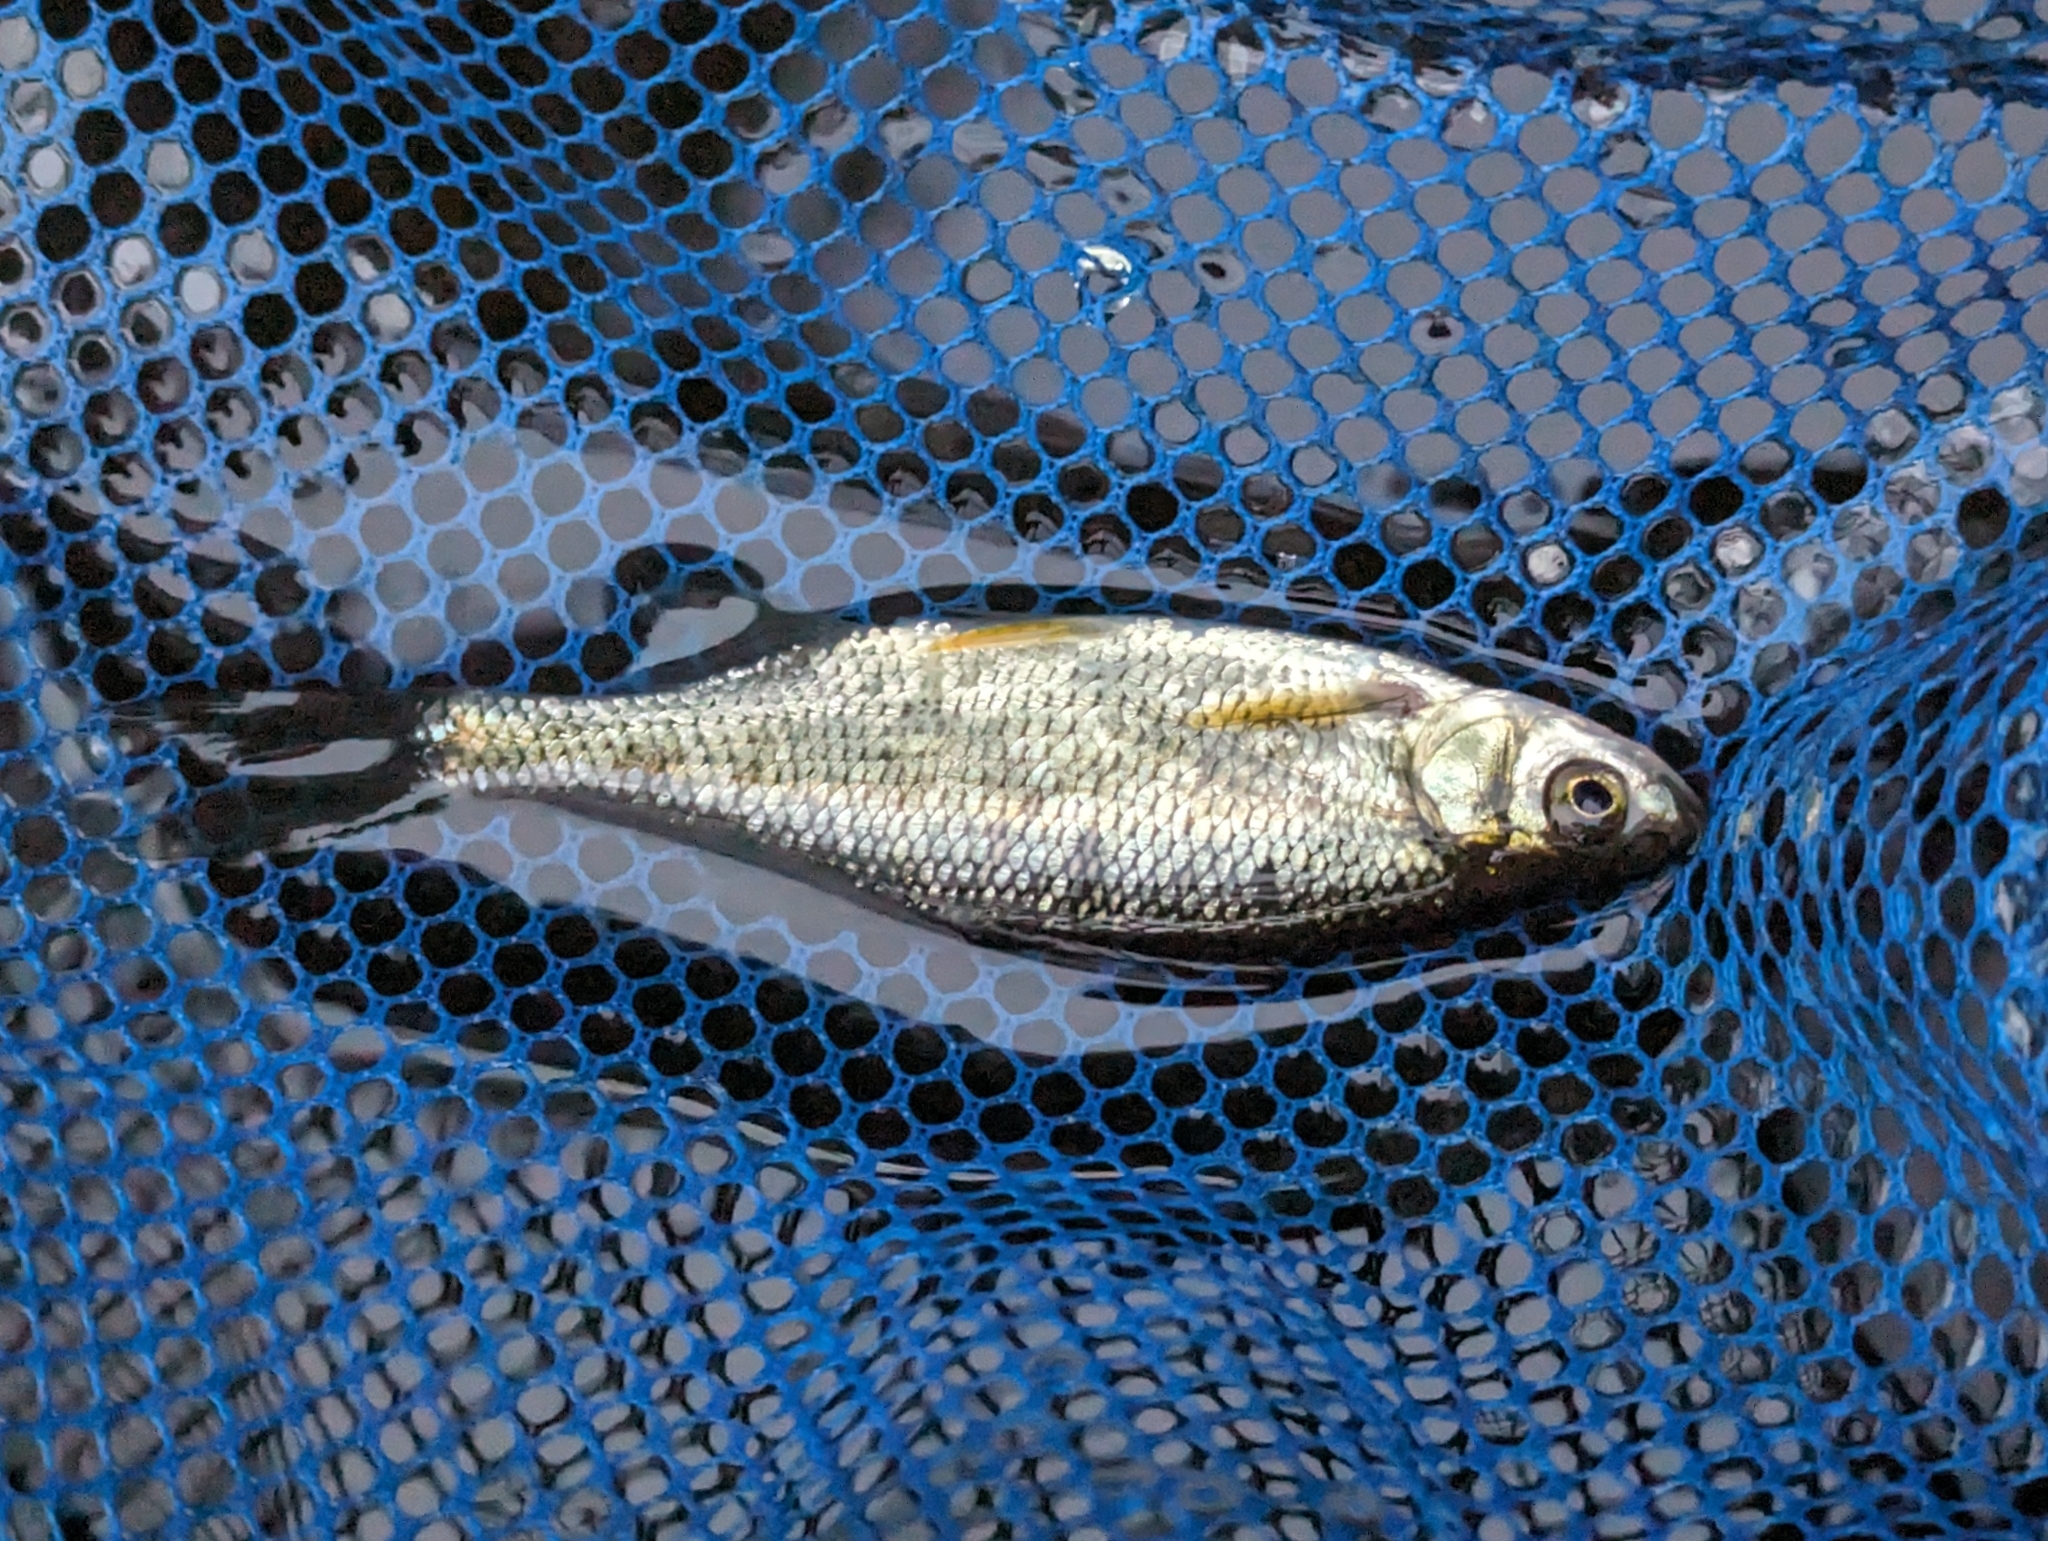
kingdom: Animalia
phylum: Chordata
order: Cypriniformes
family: Cyprinidae
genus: Notemigonus
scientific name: Notemigonus crysoleucas
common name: Golden shiner
